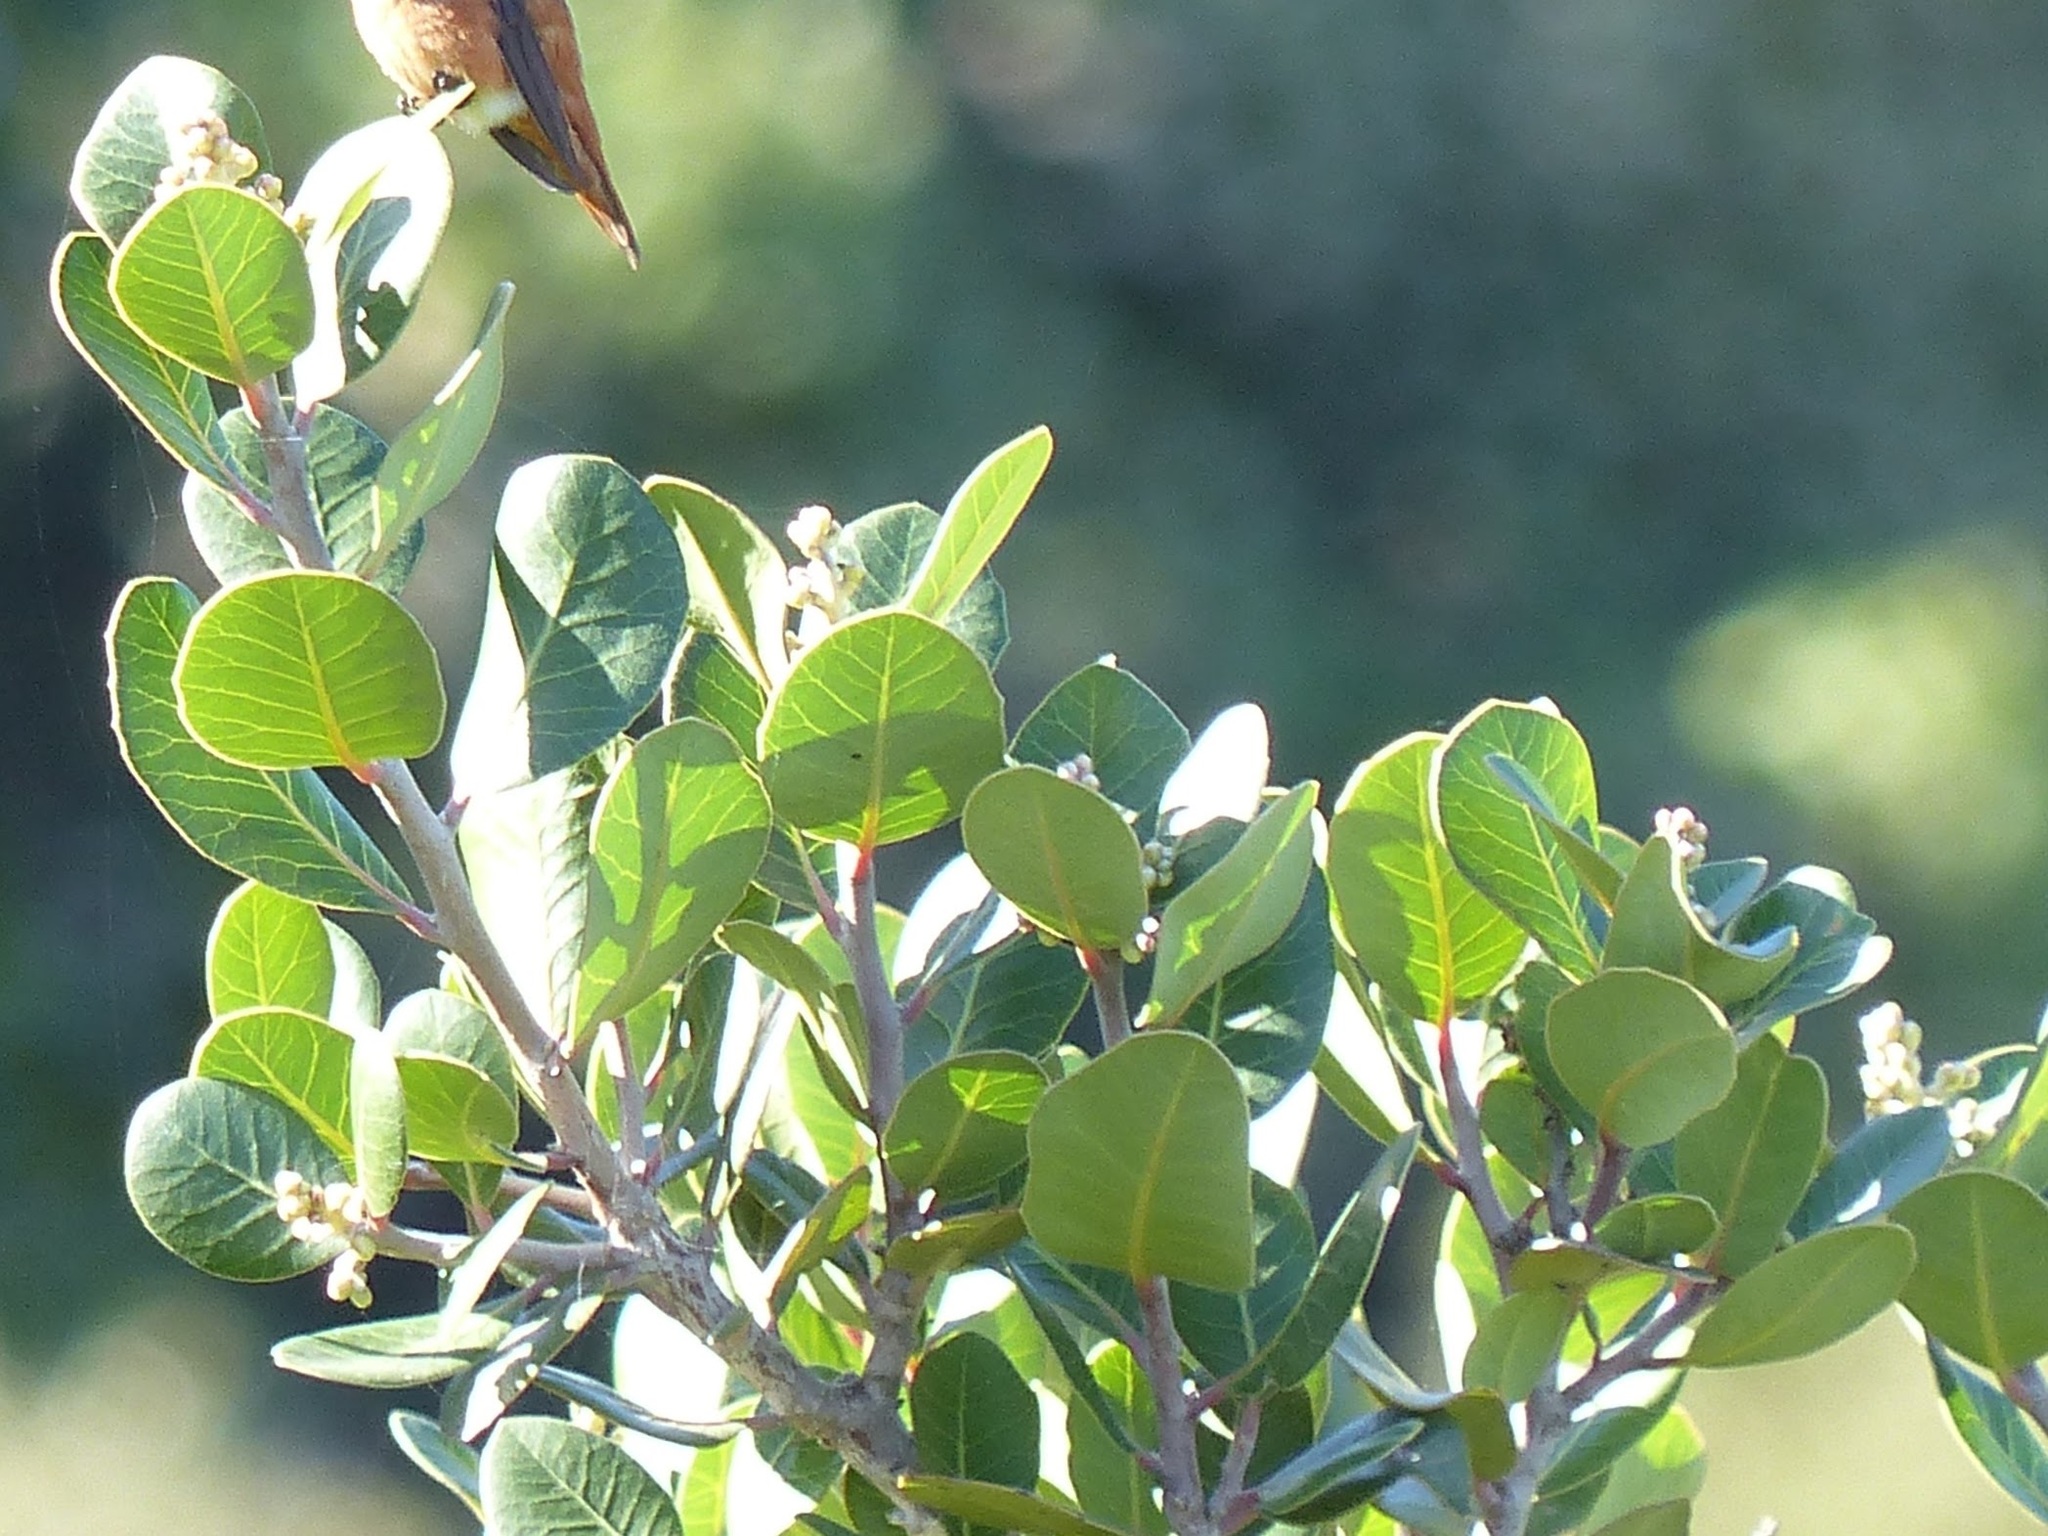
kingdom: Plantae
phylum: Tracheophyta
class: Magnoliopsida
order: Sapindales
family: Anacardiaceae
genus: Rhus
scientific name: Rhus integrifolia
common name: Lemonade sumac
